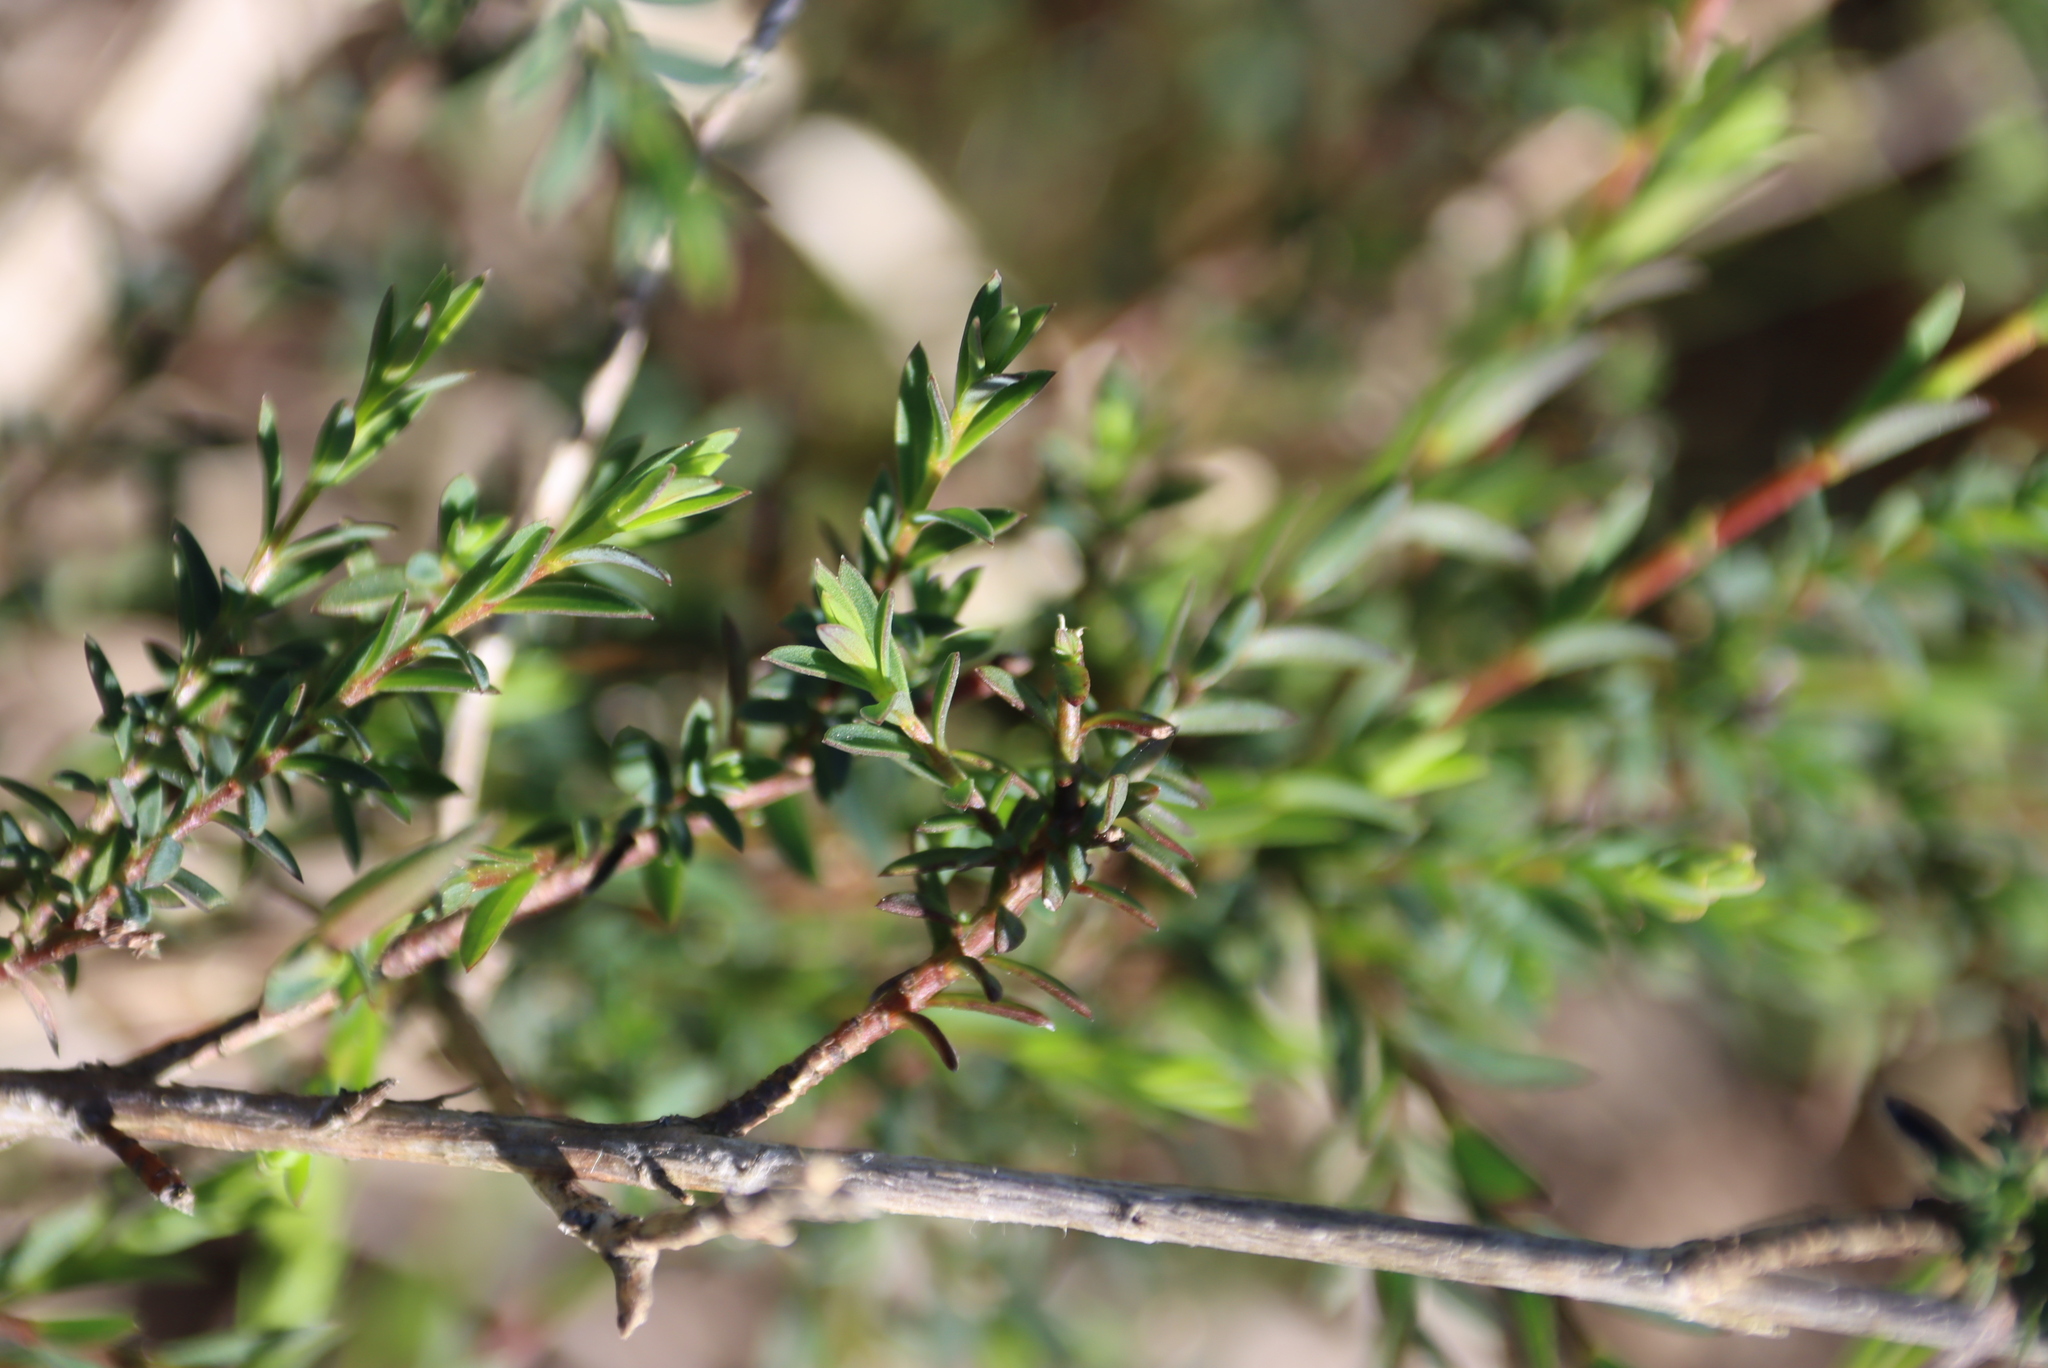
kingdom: Plantae
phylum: Tracheophyta
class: Magnoliopsida
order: Asterales
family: Asteraceae
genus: Oedera
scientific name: Oedera calycina
